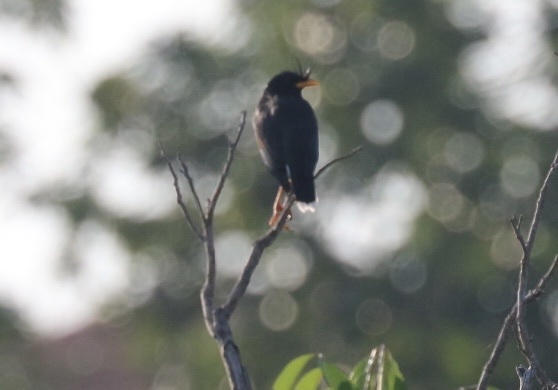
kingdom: Animalia
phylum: Chordata
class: Aves
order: Passeriformes
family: Sturnidae
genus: Acridotheres
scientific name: Acridotheres grandis
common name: Great myna
